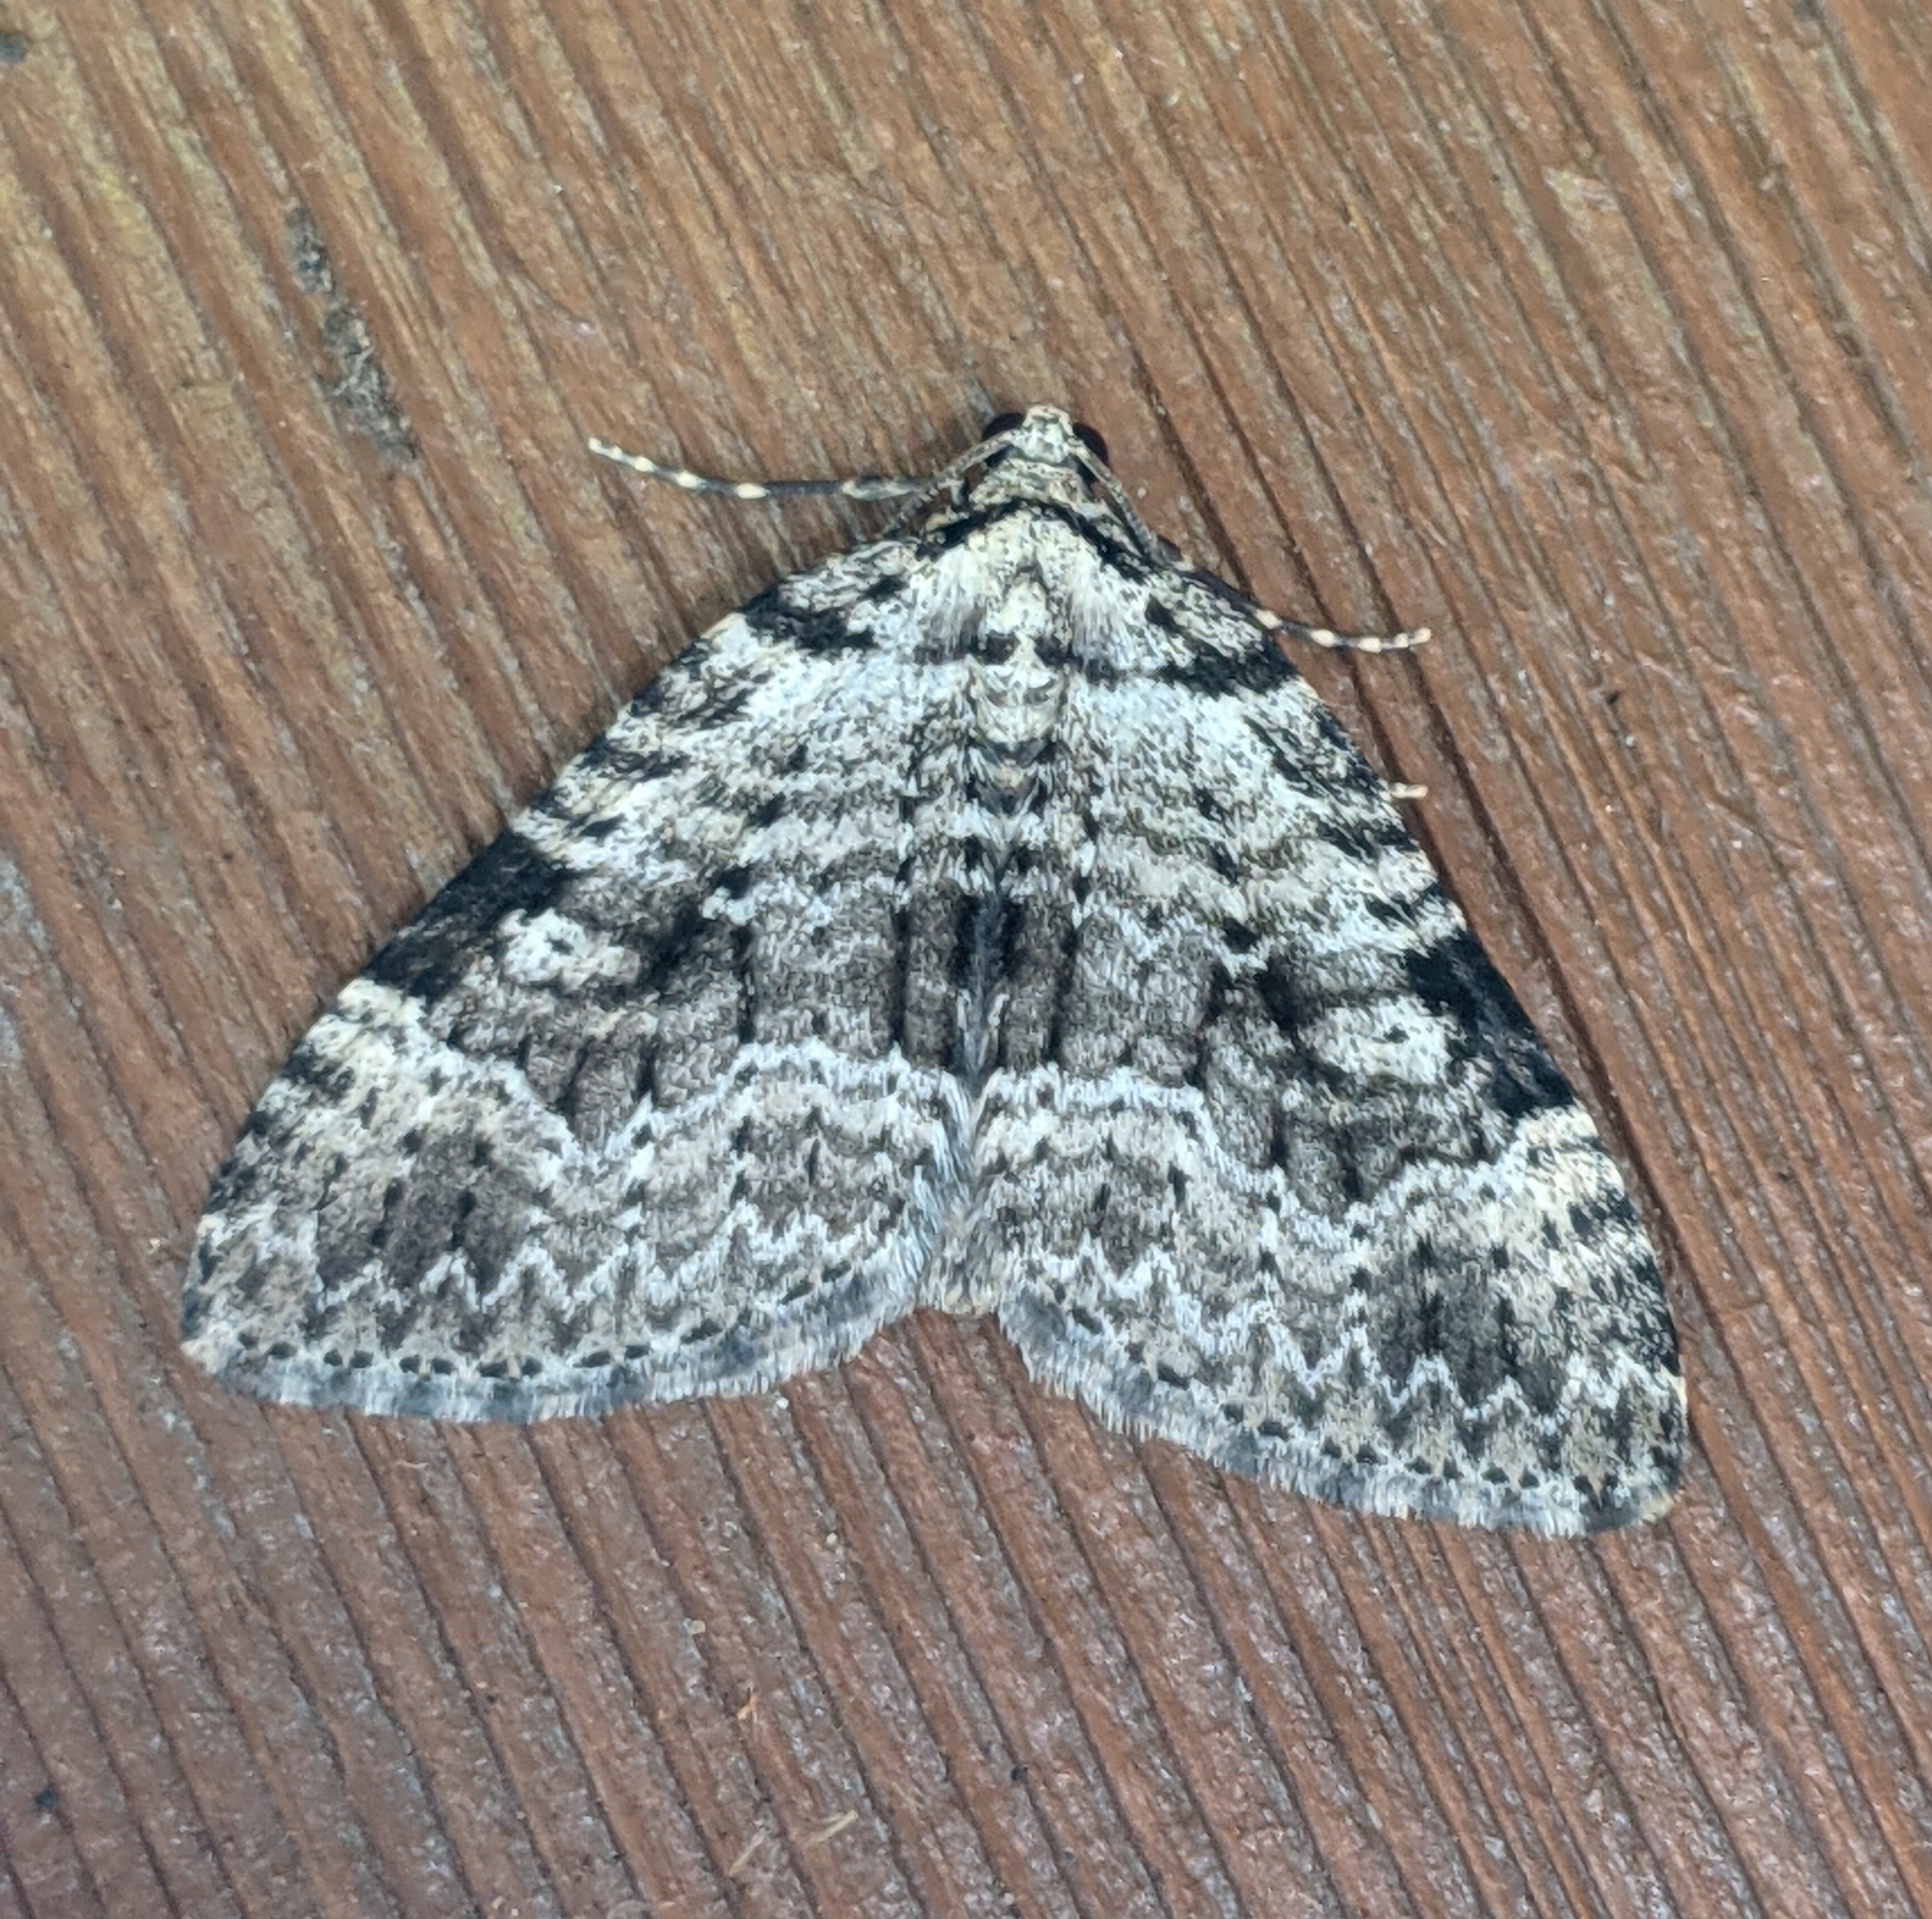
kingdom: Animalia
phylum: Arthropoda
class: Insecta
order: Lepidoptera
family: Geometridae
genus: Perizoma
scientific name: Perizoma curvilinea
